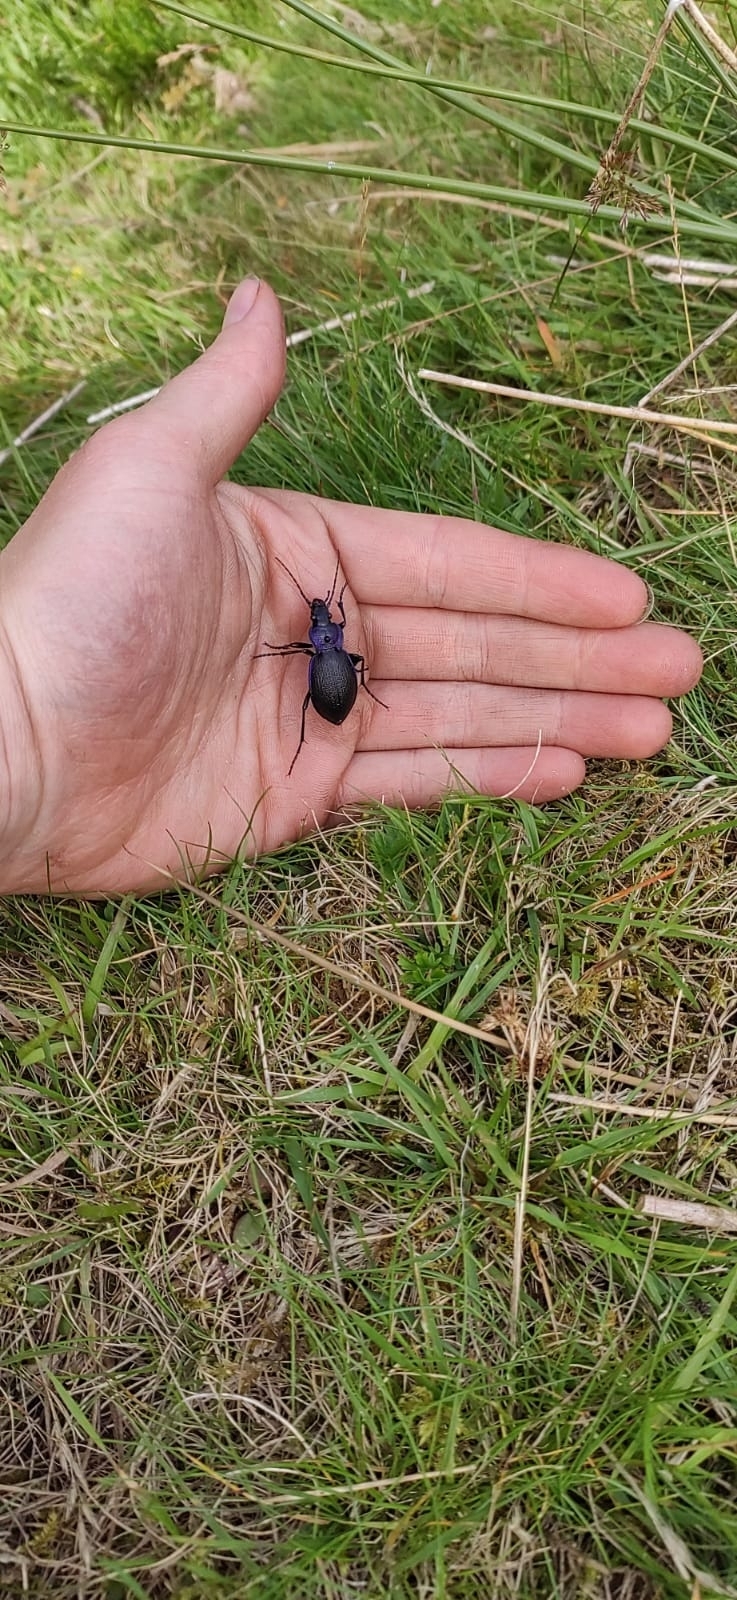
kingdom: Animalia
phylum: Arthropoda
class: Insecta
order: Coleoptera
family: Carabidae
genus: Carabus
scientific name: Carabus problematicus
